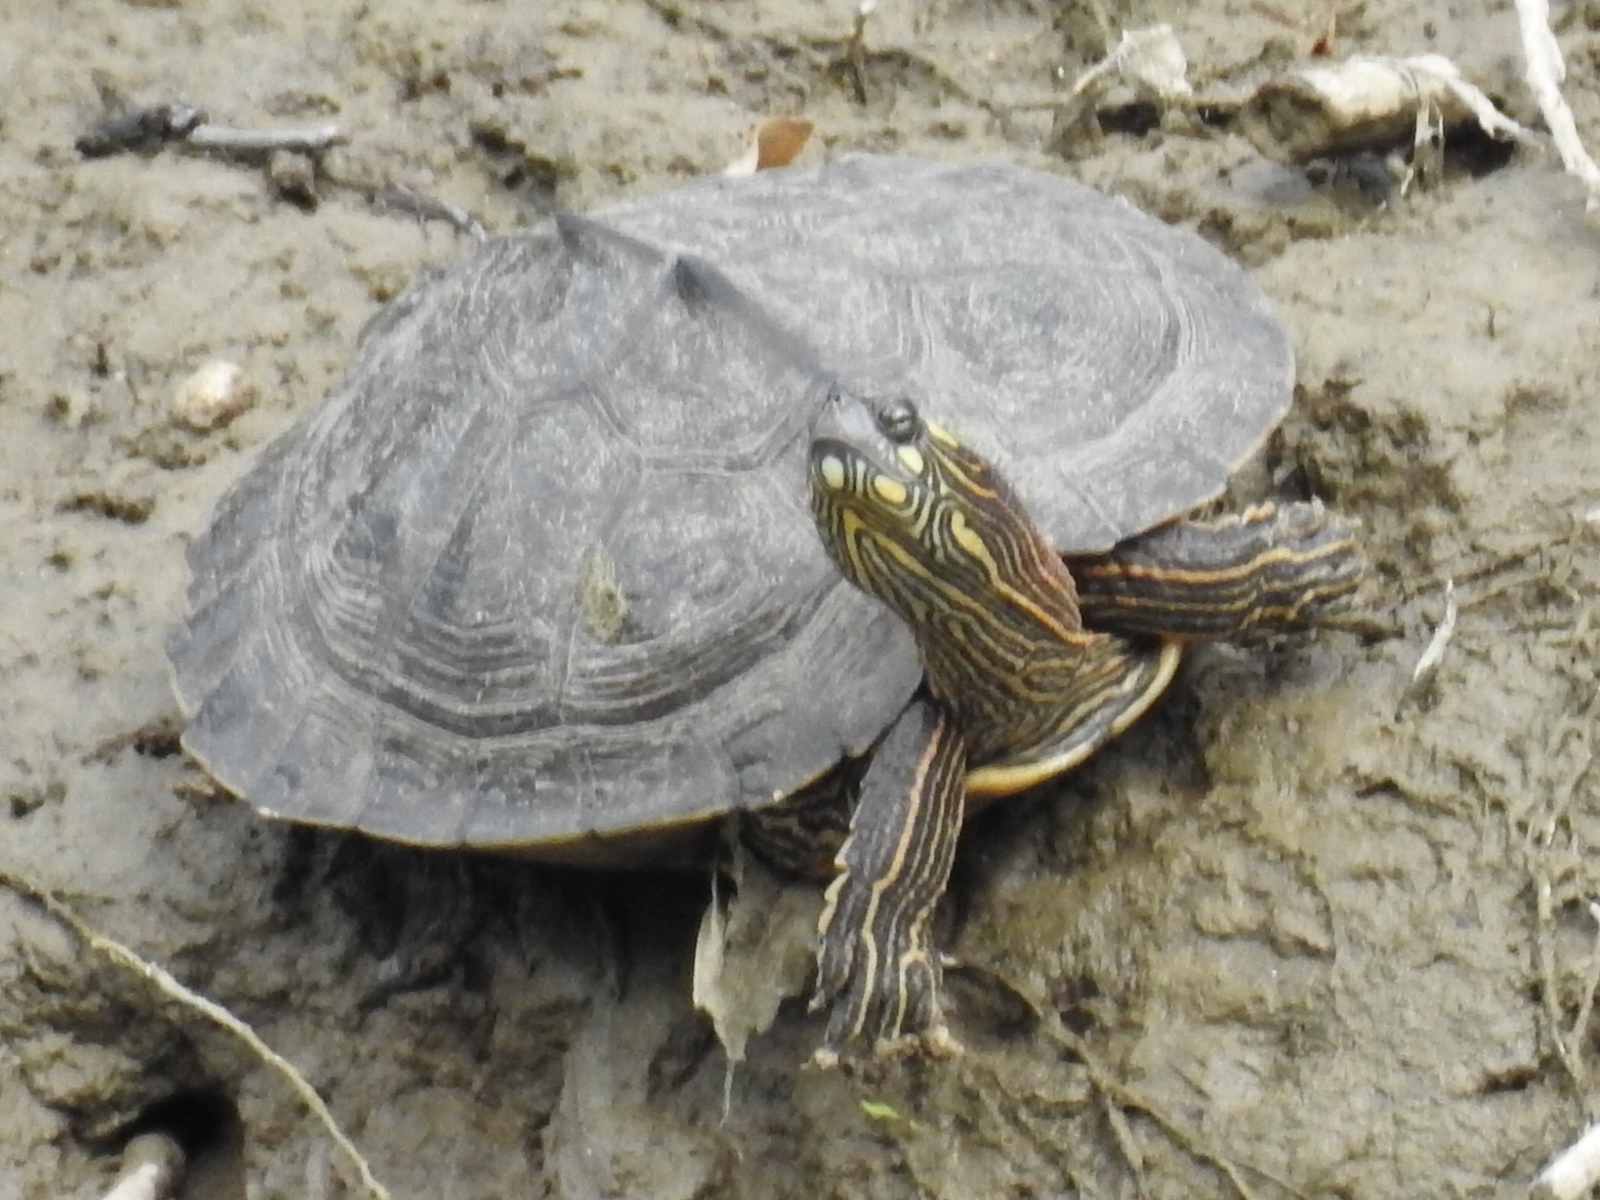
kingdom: Animalia
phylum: Chordata
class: Testudines
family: Emydidae
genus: Graptemys
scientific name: Graptemys ouachitensis
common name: Ouachita map turtle
